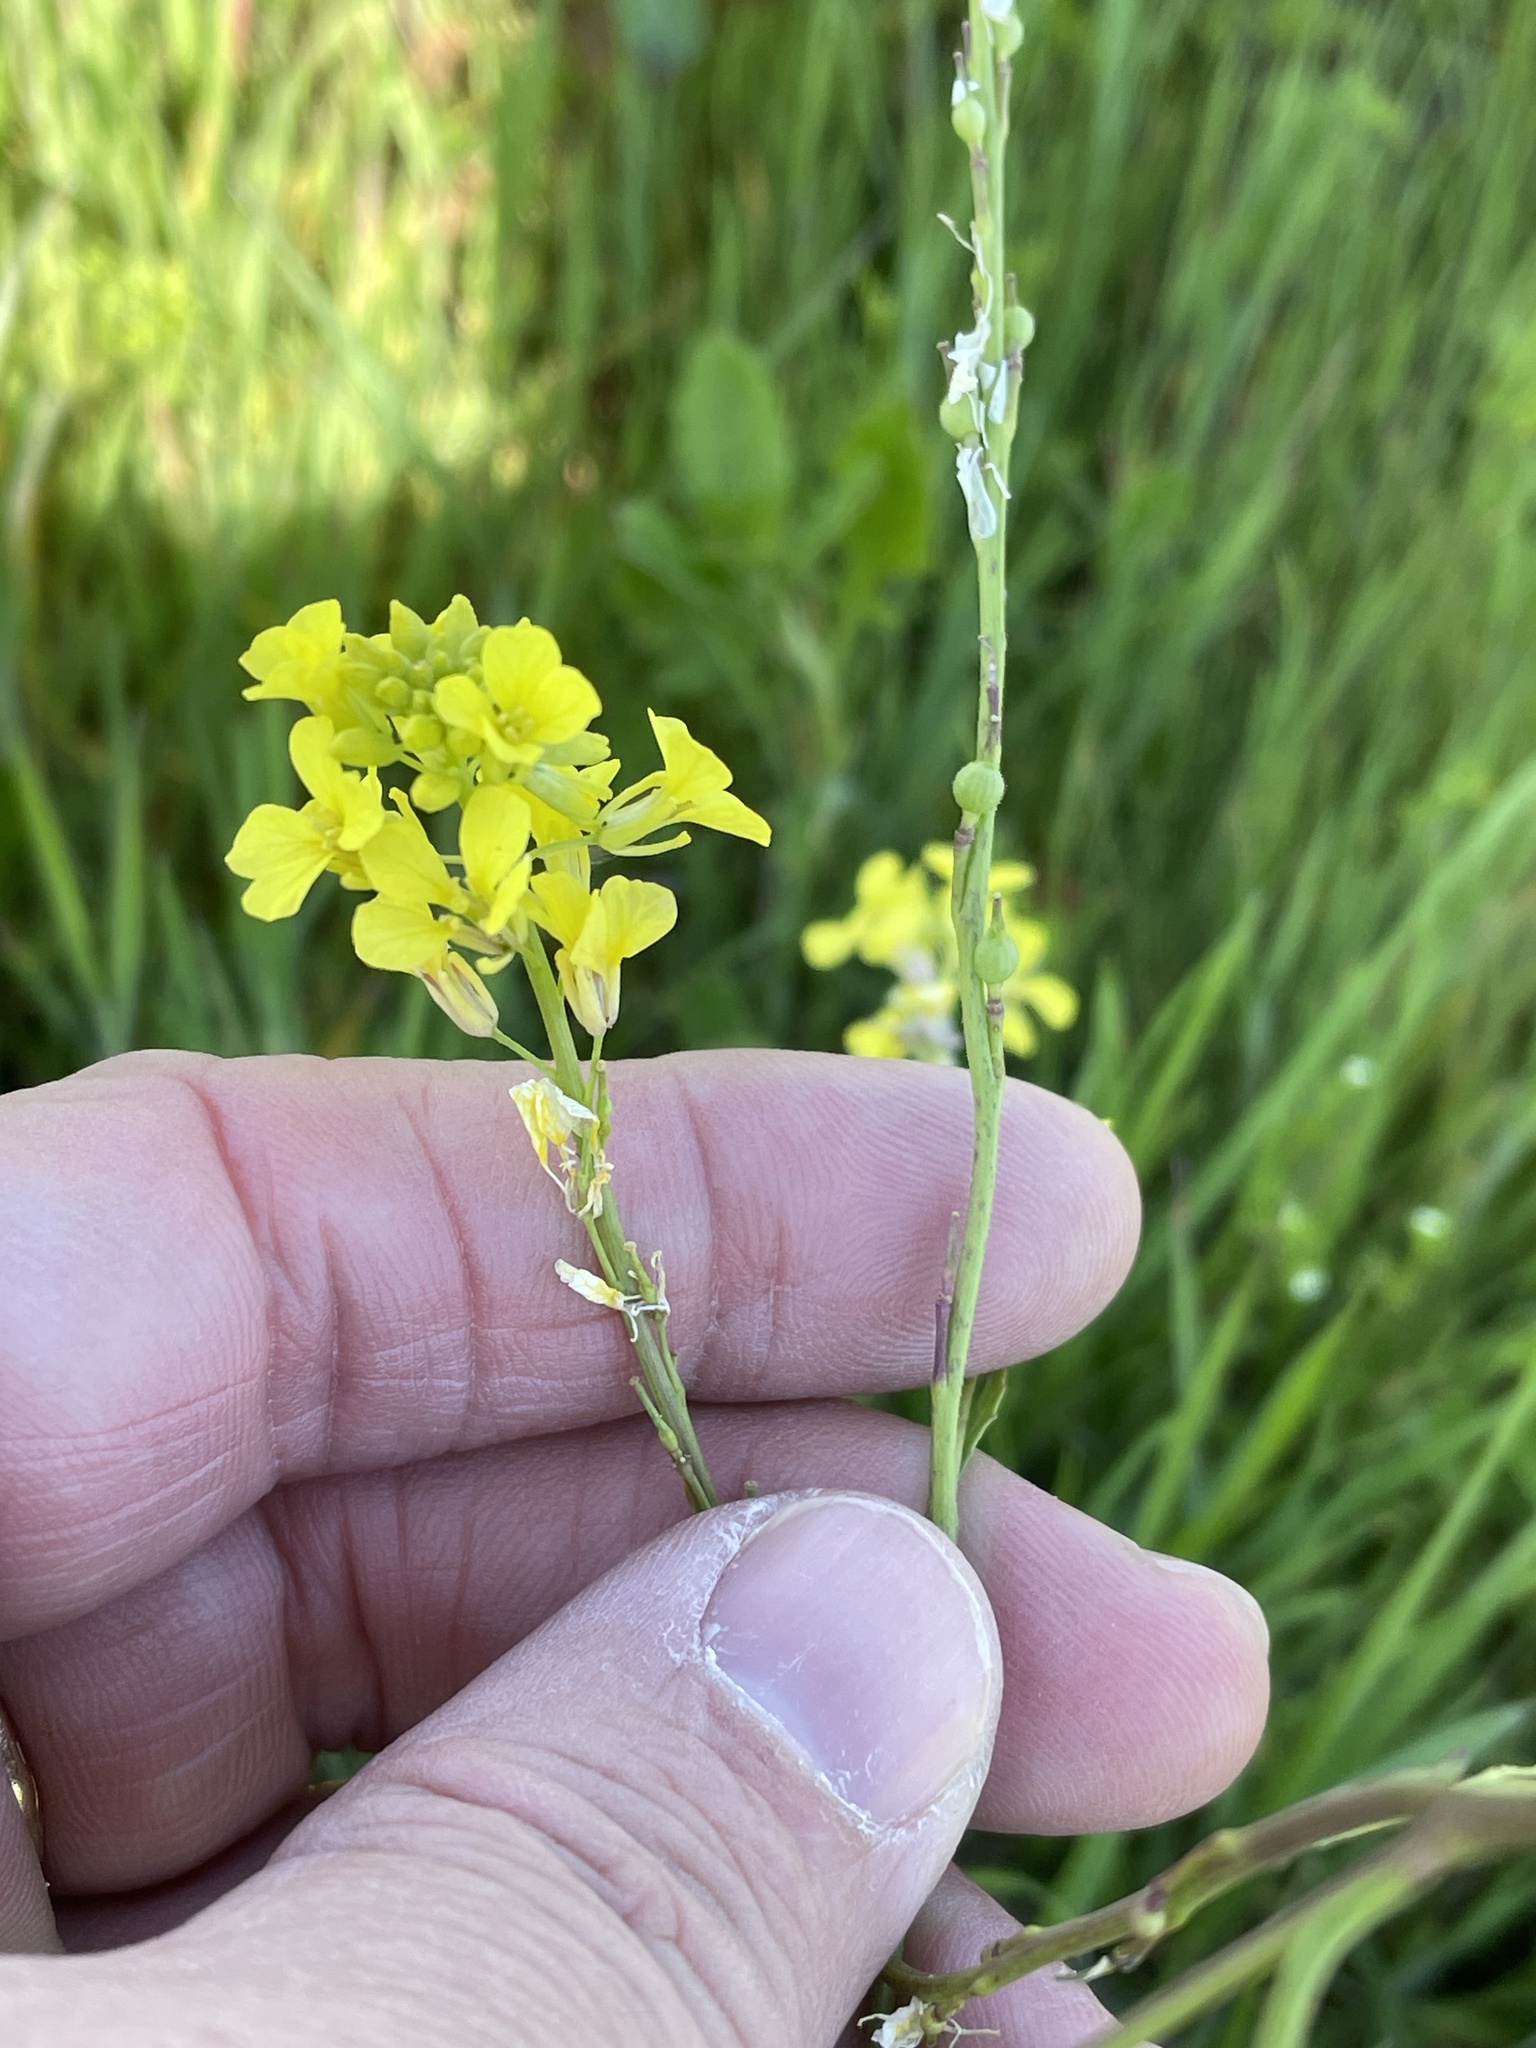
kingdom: Plantae
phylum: Tracheophyta
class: Magnoliopsida
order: Brassicales
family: Brassicaceae
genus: Rapistrum
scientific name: Rapistrum rugosum
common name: Annual bastardcabbage
